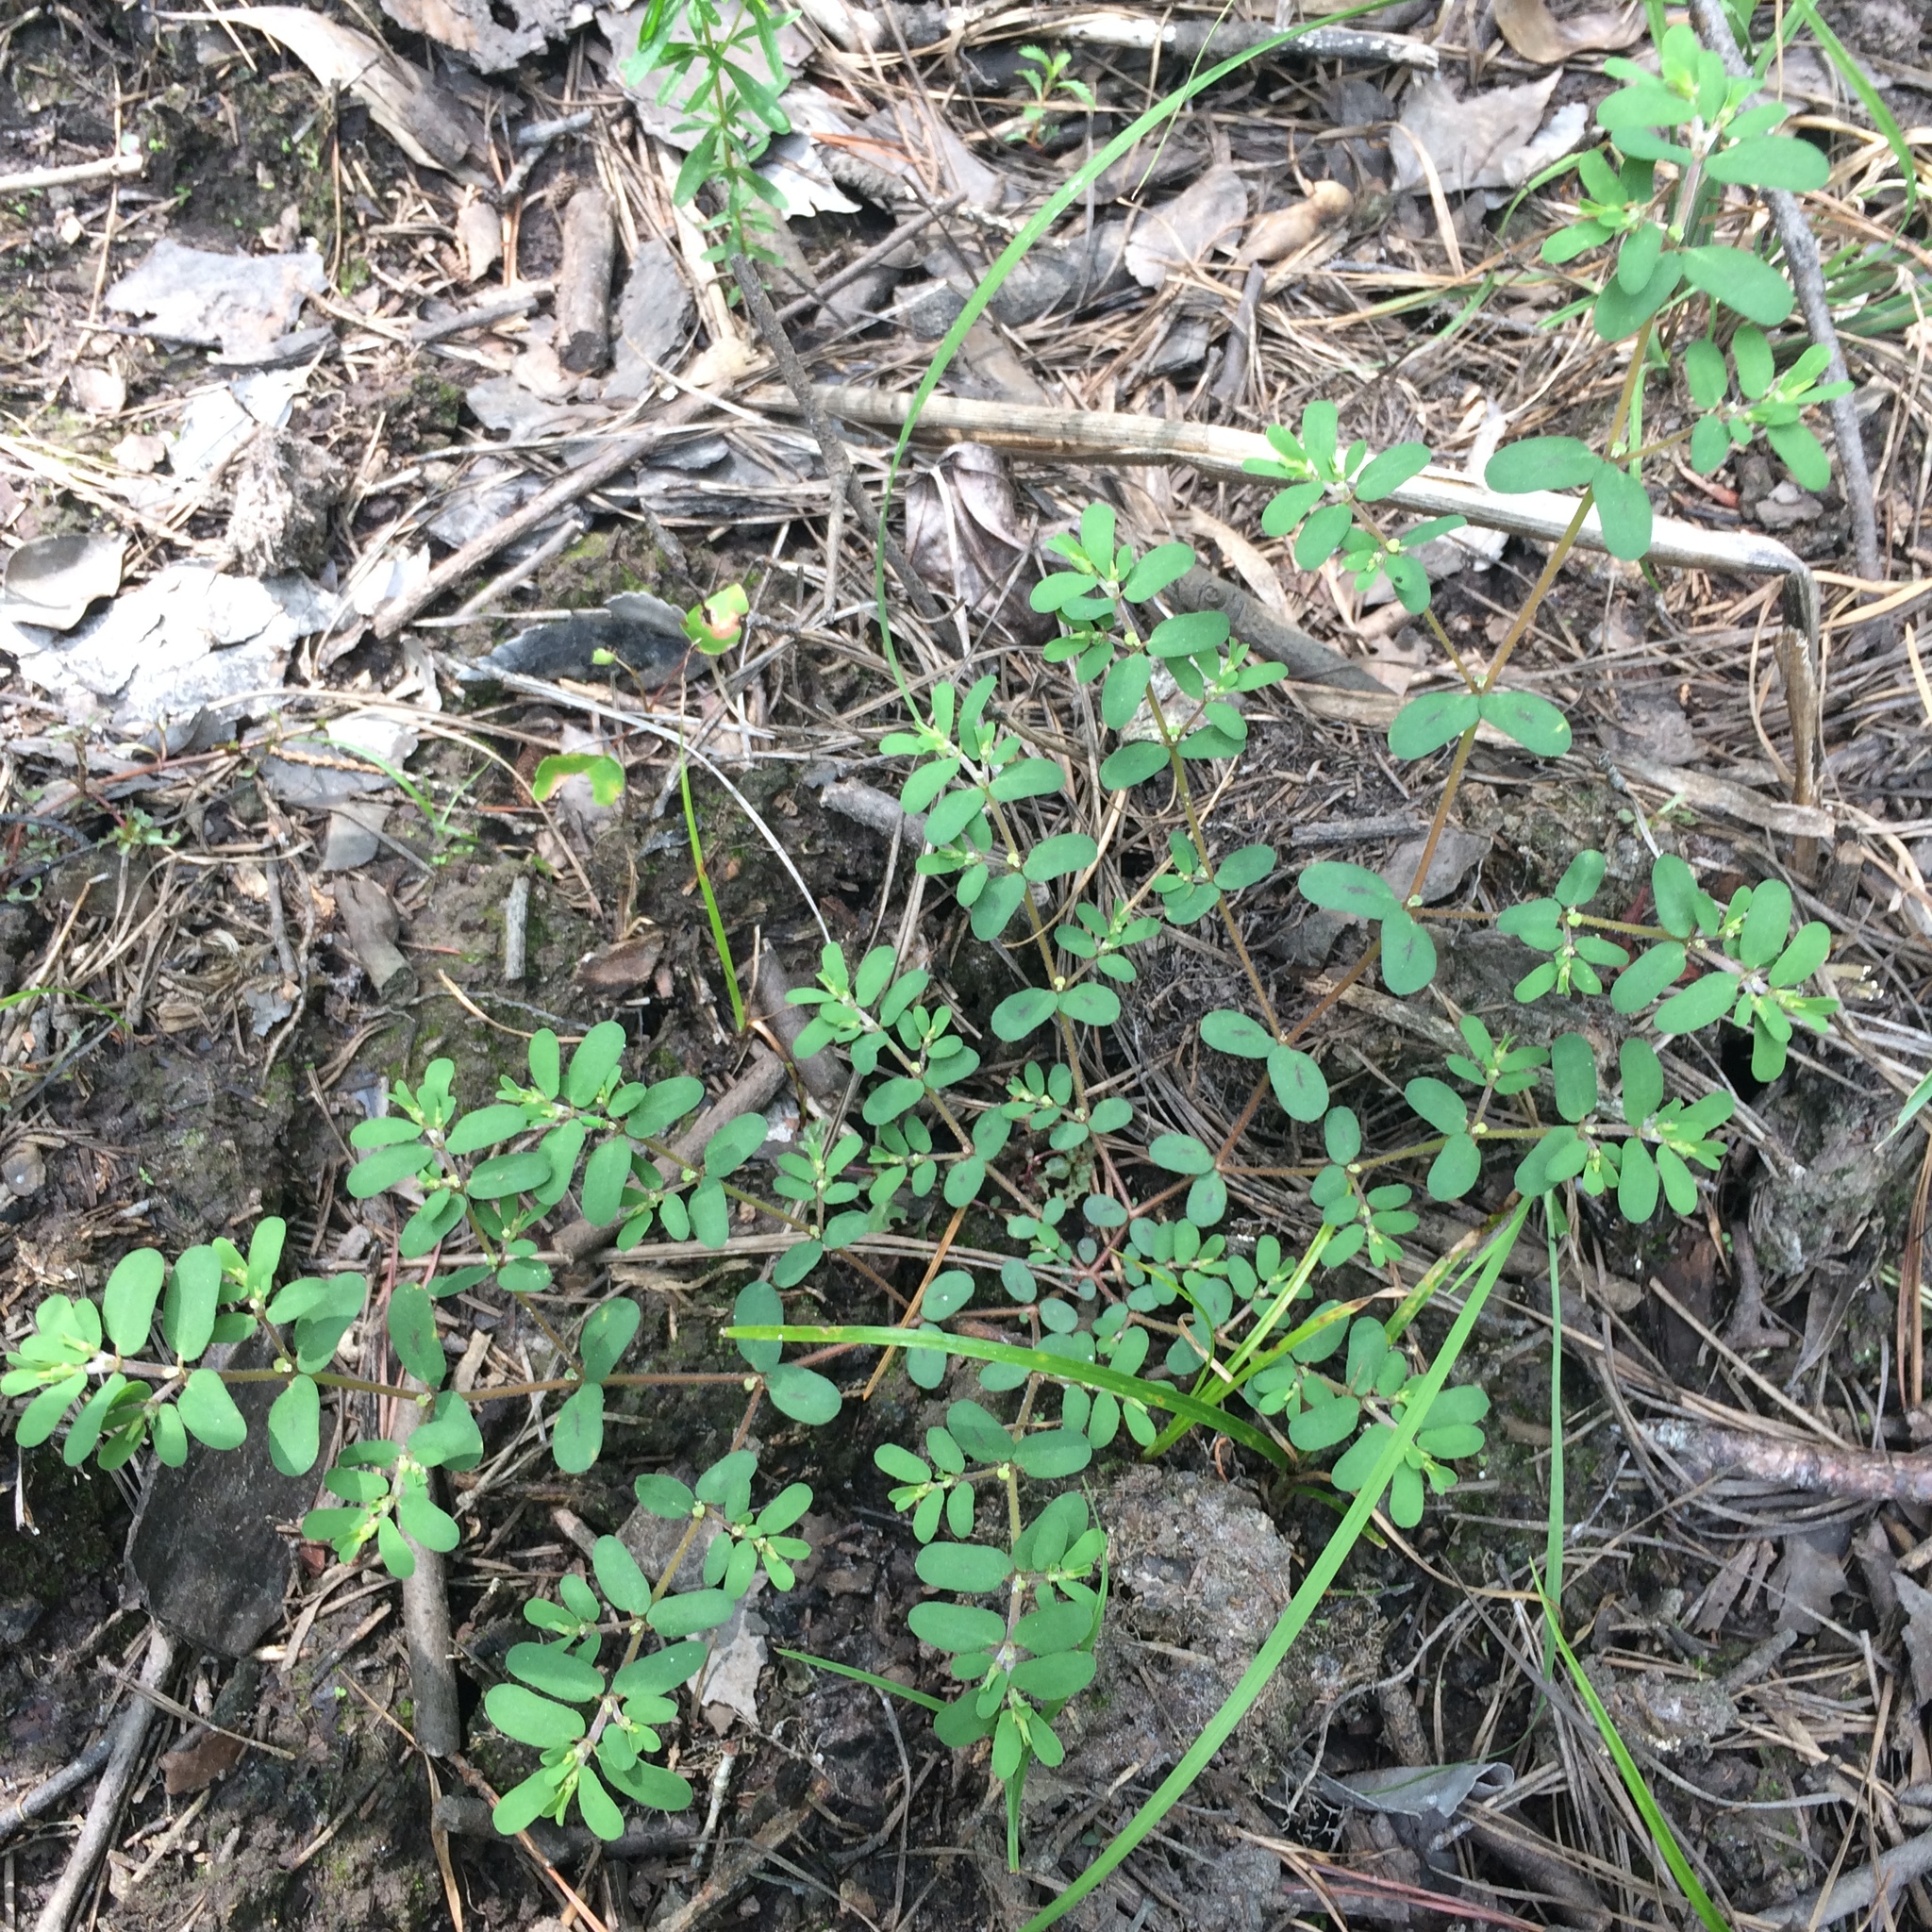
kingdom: Plantae
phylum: Tracheophyta
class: Magnoliopsida
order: Malpighiales
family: Euphorbiaceae
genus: Euphorbia
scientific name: Euphorbia maculata
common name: Spotted spurge
